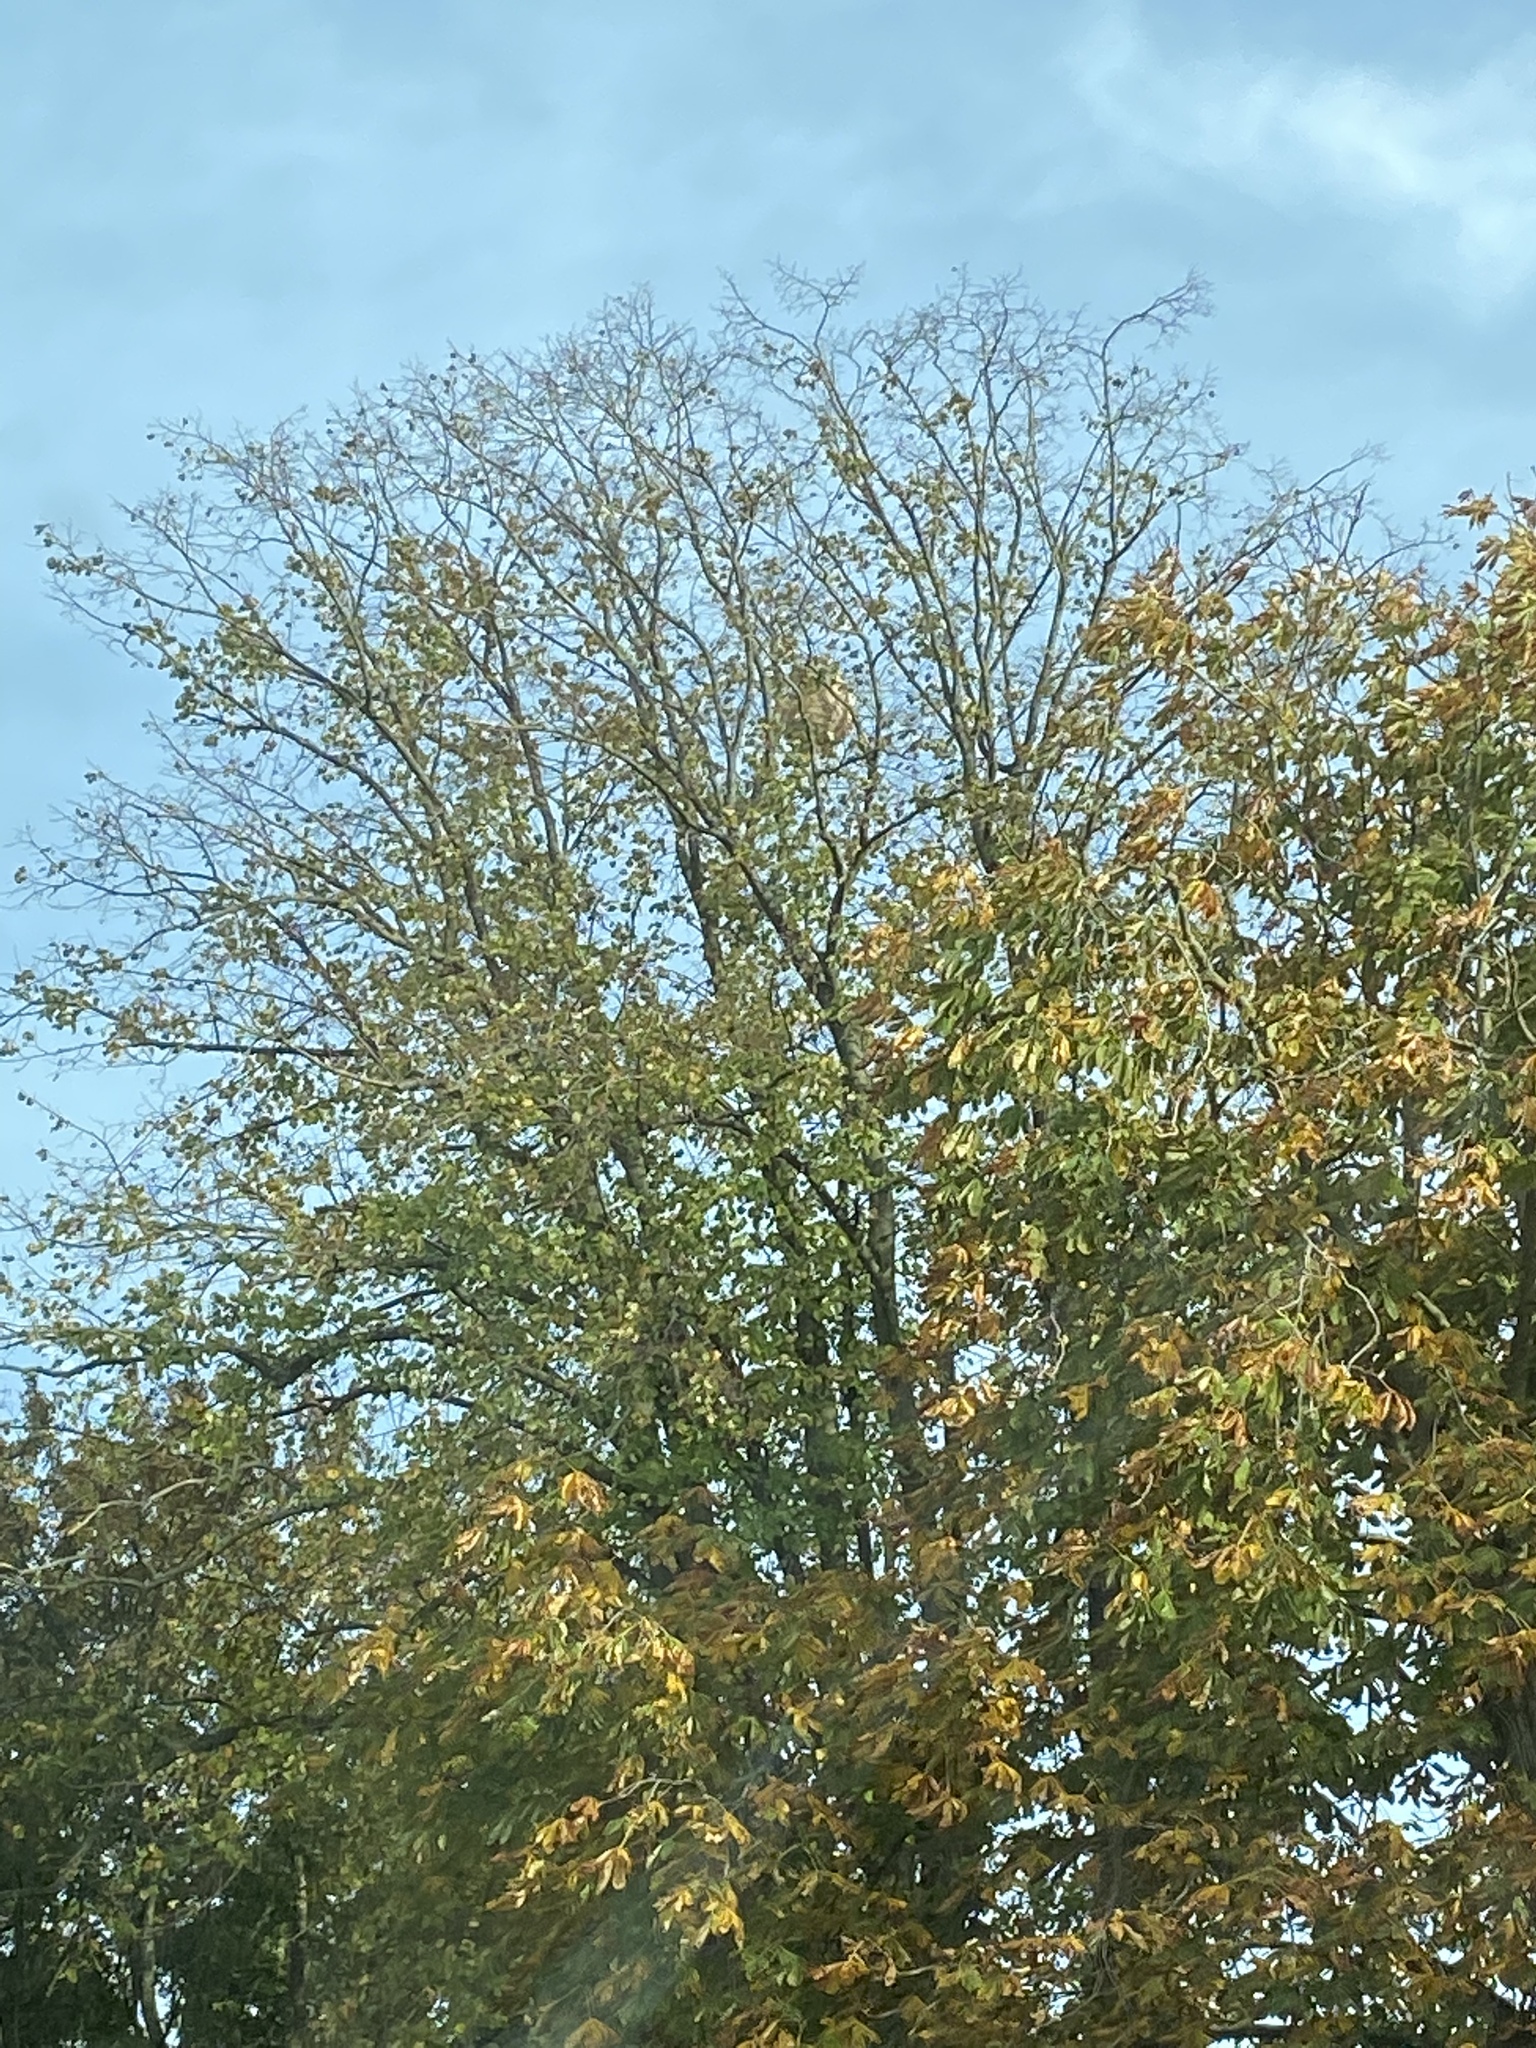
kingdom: Animalia
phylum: Arthropoda
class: Insecta
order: Hymenoptera
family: Vespidae
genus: Vespa
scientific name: Vespa velutina
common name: Asian hornet
